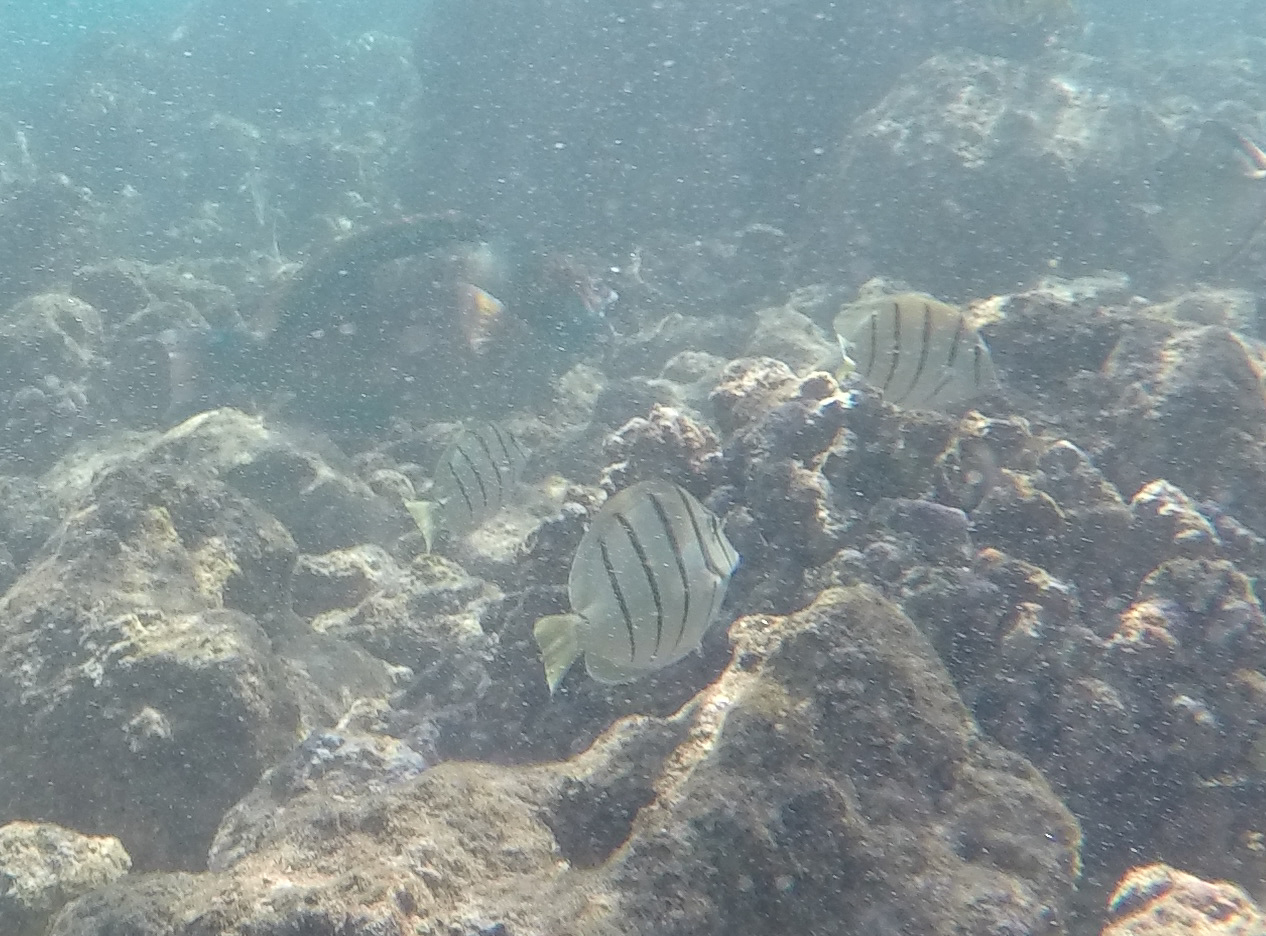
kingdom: Animalia
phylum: Chordata
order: Perciformes
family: Acanthuridae
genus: Acanthurus
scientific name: Acanthurus triostegus
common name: Convict surgeonfish
